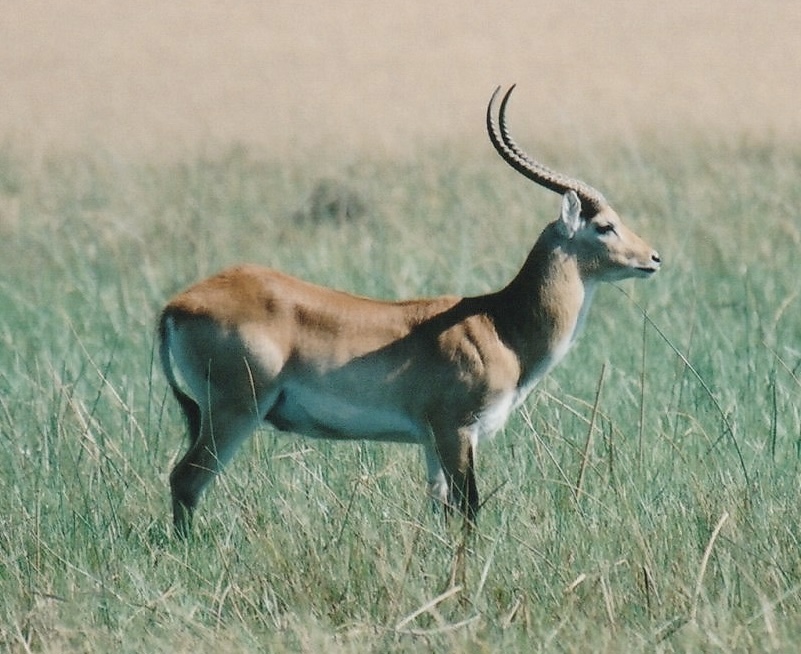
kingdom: Animalia
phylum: Chordata
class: Mammalia
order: Artiodactyla
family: Bovidae
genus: Kobus
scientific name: Kobus leche
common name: Lechwe
